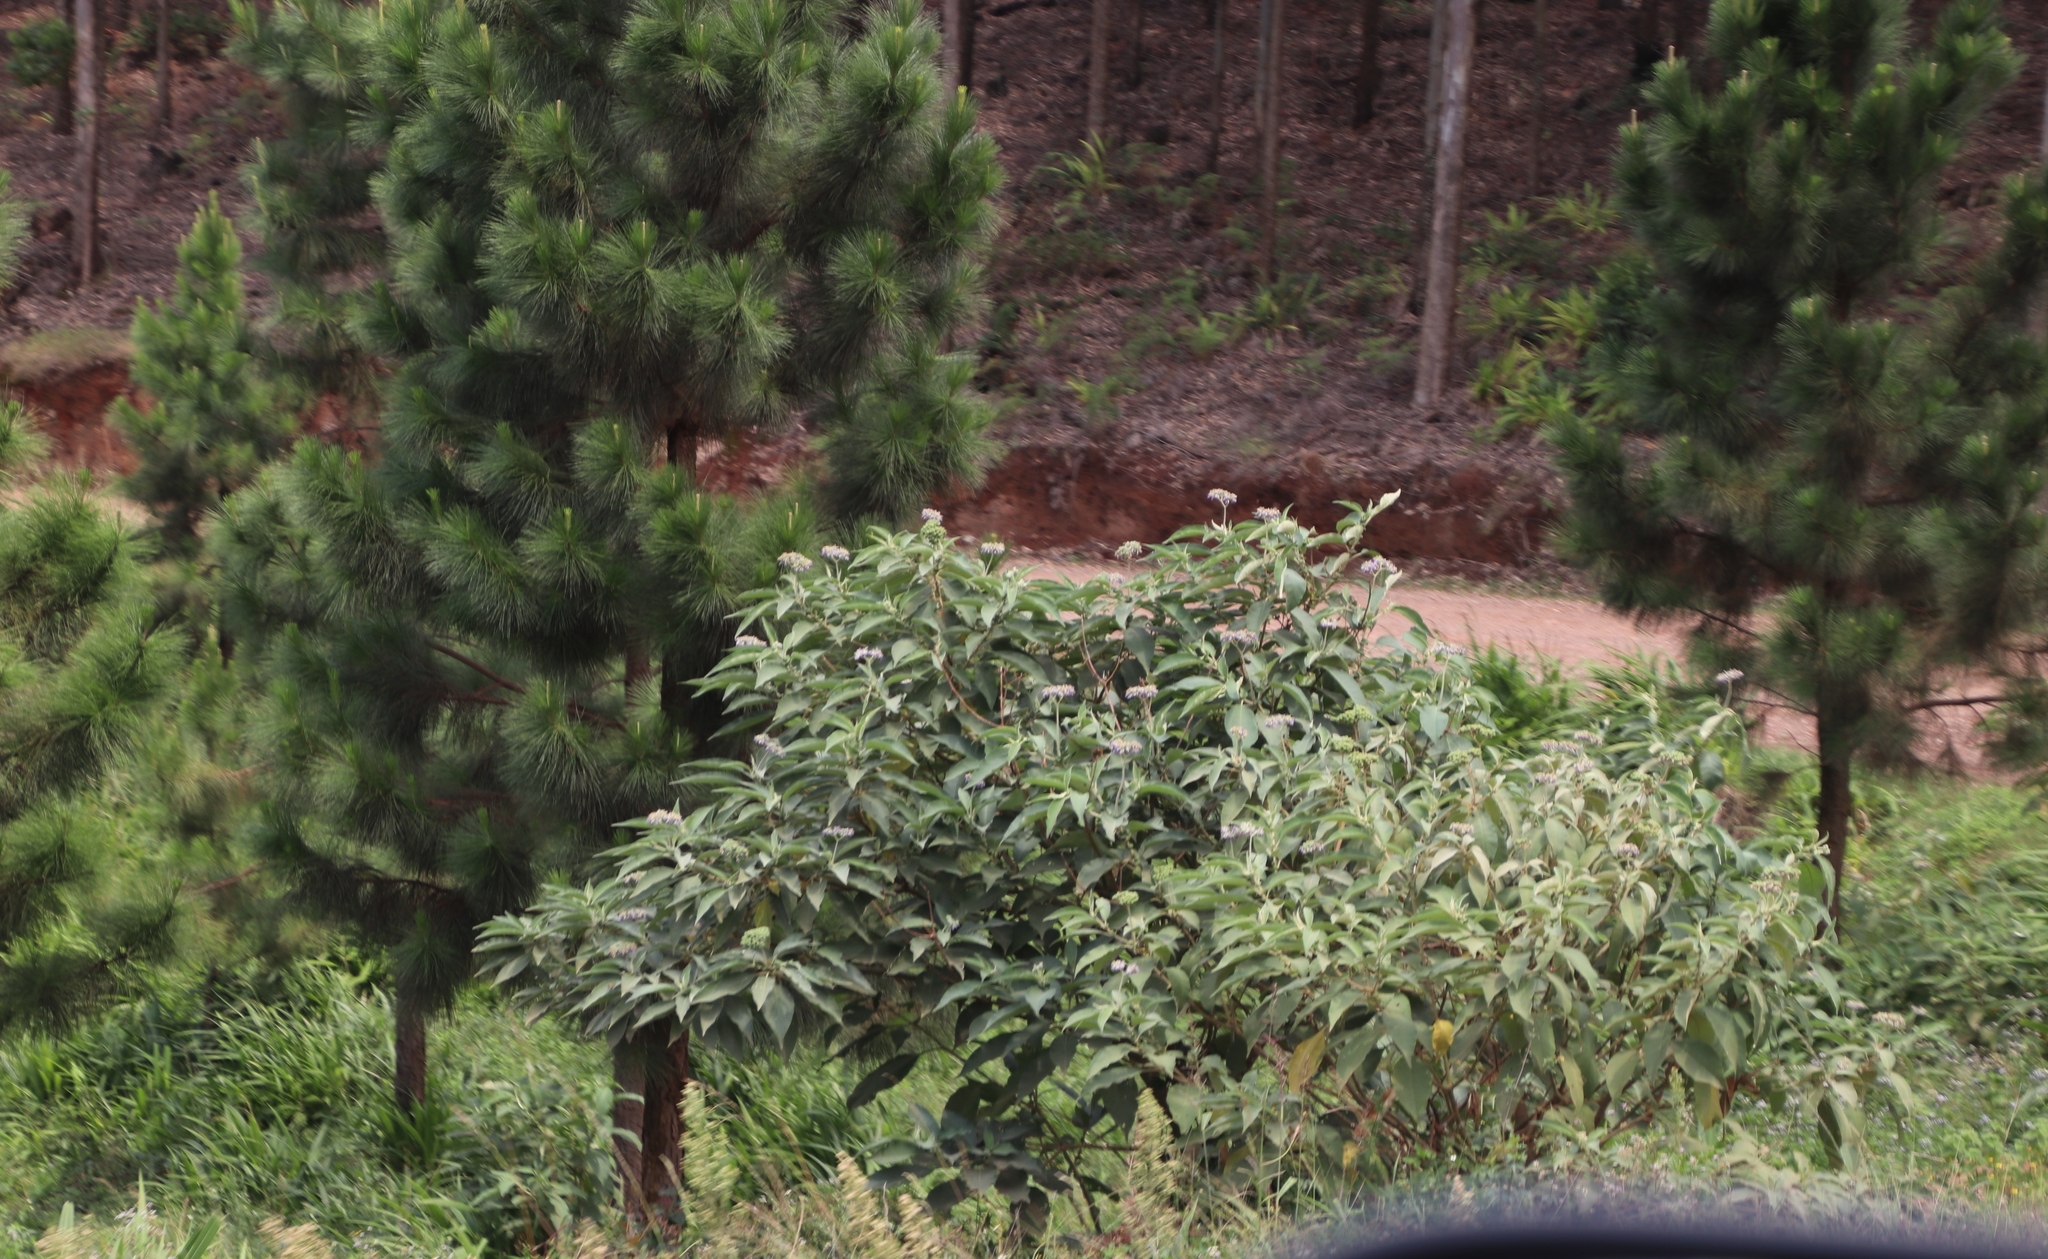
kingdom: Plantae
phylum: Tracheophyta
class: Magnoliopsida
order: Solanales
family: Solanaceae
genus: Solanum
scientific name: Solanum mauritianum
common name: Earleaf nightshade
